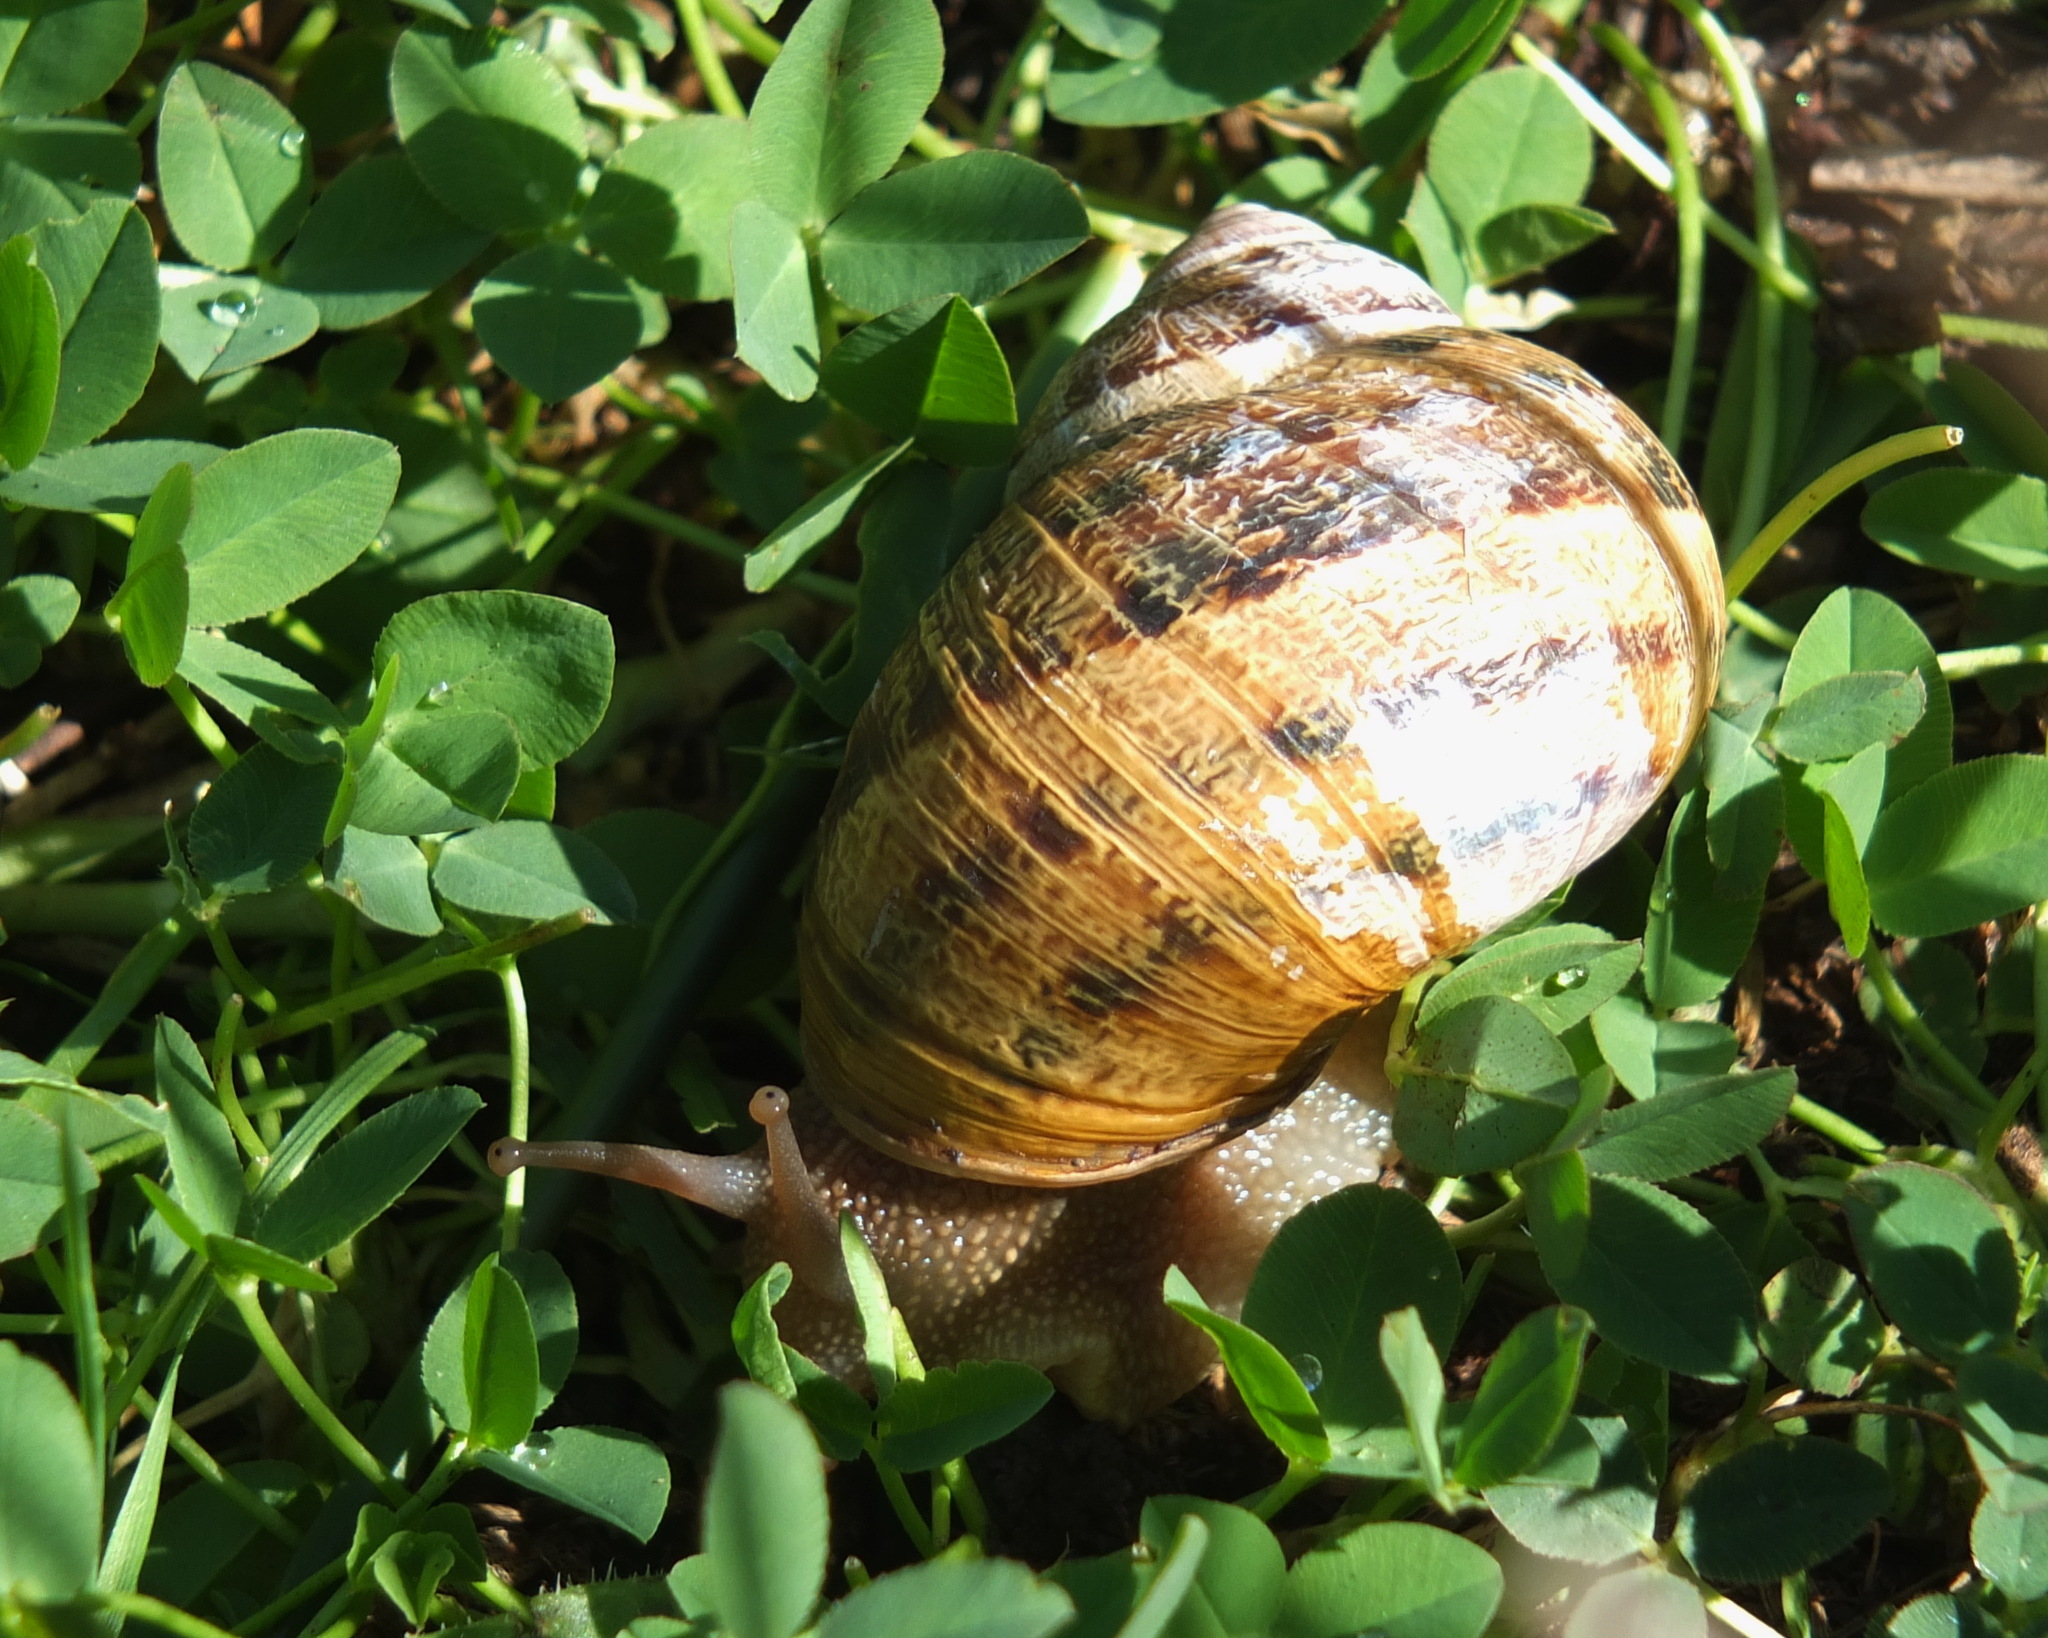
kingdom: Animalia
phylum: Mollusca
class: Gastropoda
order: Stylommatophora
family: Helicidae
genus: Cornu
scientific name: Cornu aspersum
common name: Brown garden snail
